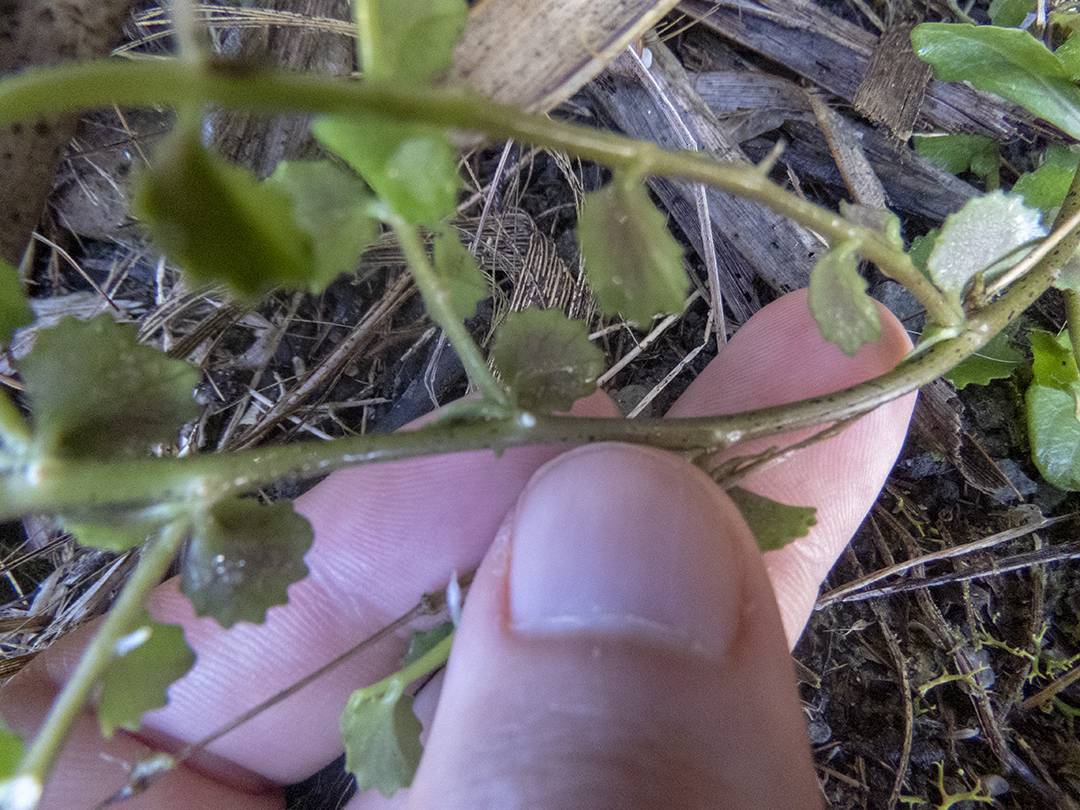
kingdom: Plantae
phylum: Tracheophyta
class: Magnoliopsida
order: Asterales
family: Campanulaceae
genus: Lobelia
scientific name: Lobelia angulata
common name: Lawn lobelia
